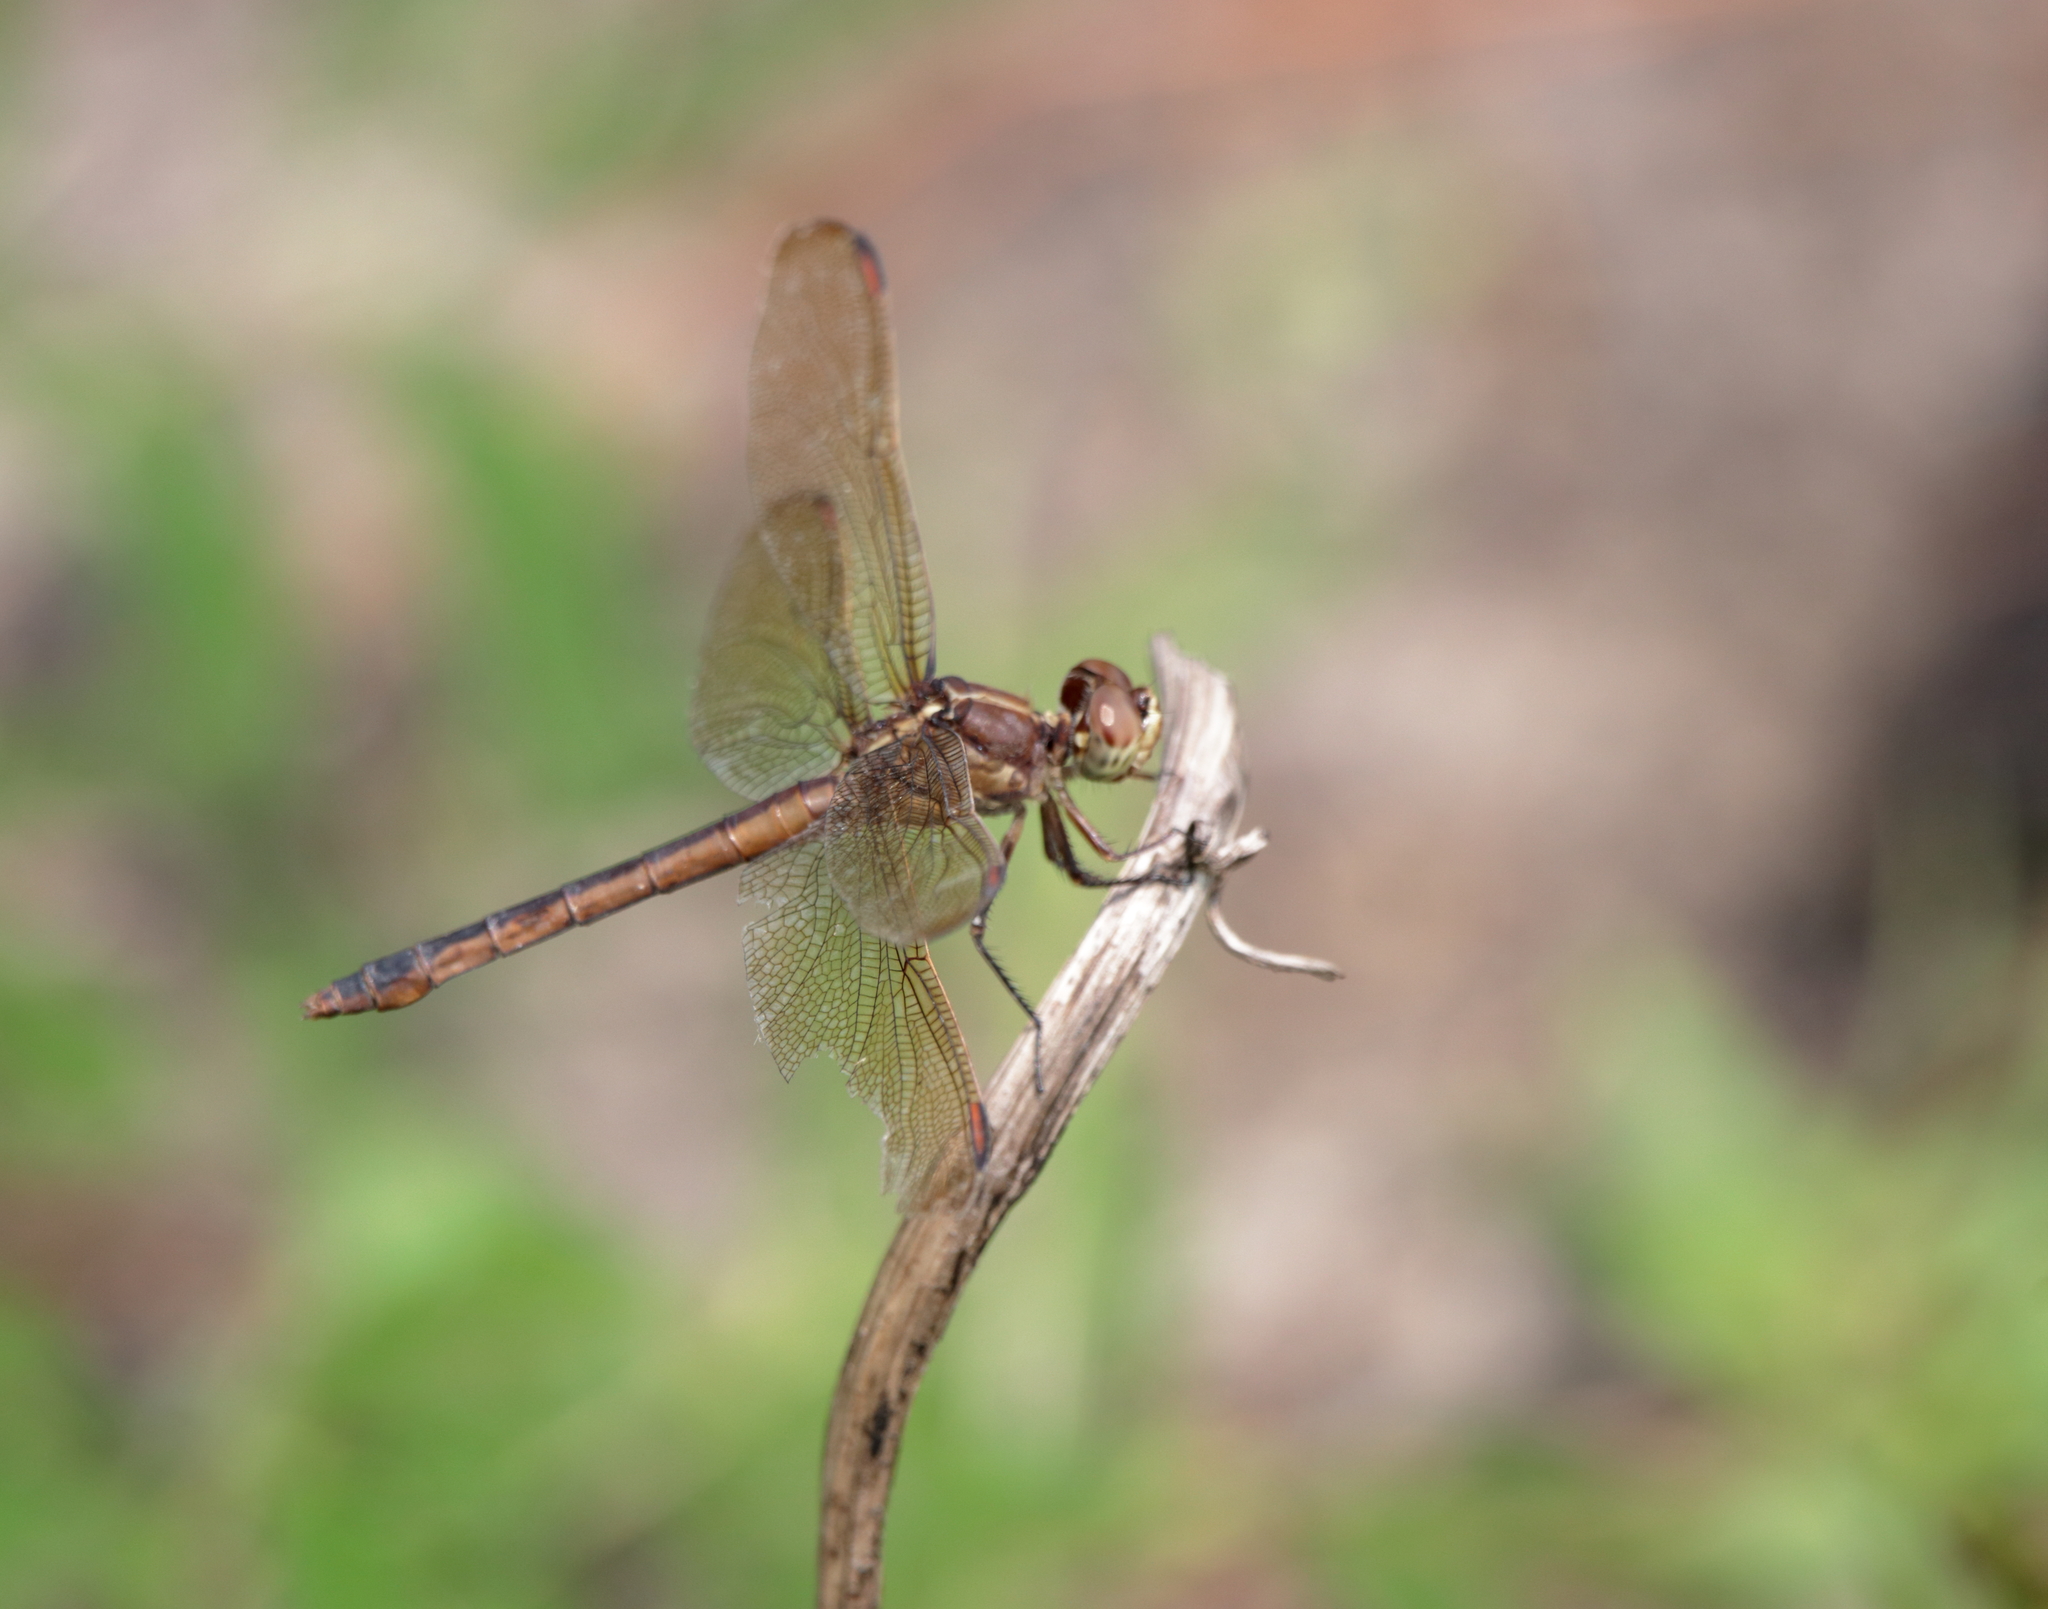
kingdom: Animalia
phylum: Arthropoda
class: Insecta
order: Odonata
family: Libellulidae
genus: Libellula
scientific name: Libellula auripennis
